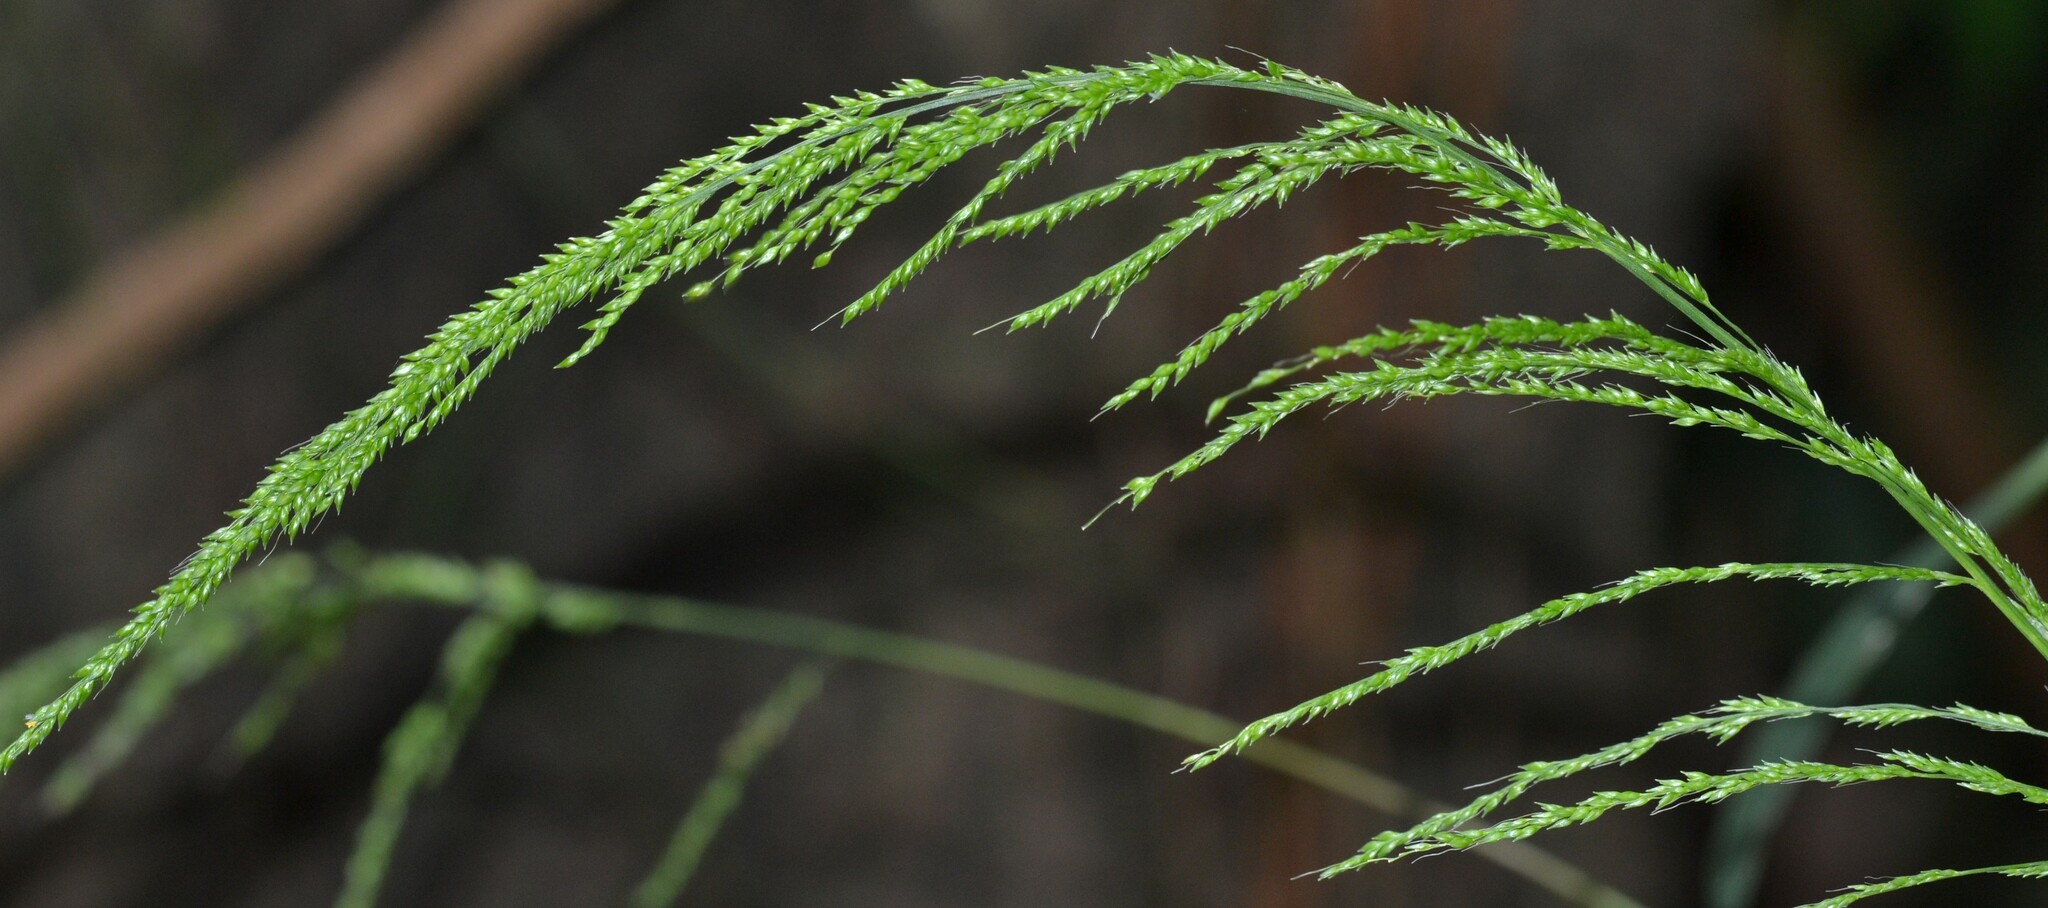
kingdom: Plantae
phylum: Tracheophyta
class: Liliopsida
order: Poales
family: Poaceae
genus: Setaria
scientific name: Setaria palmifolia
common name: Broadleaved bristlegrass
